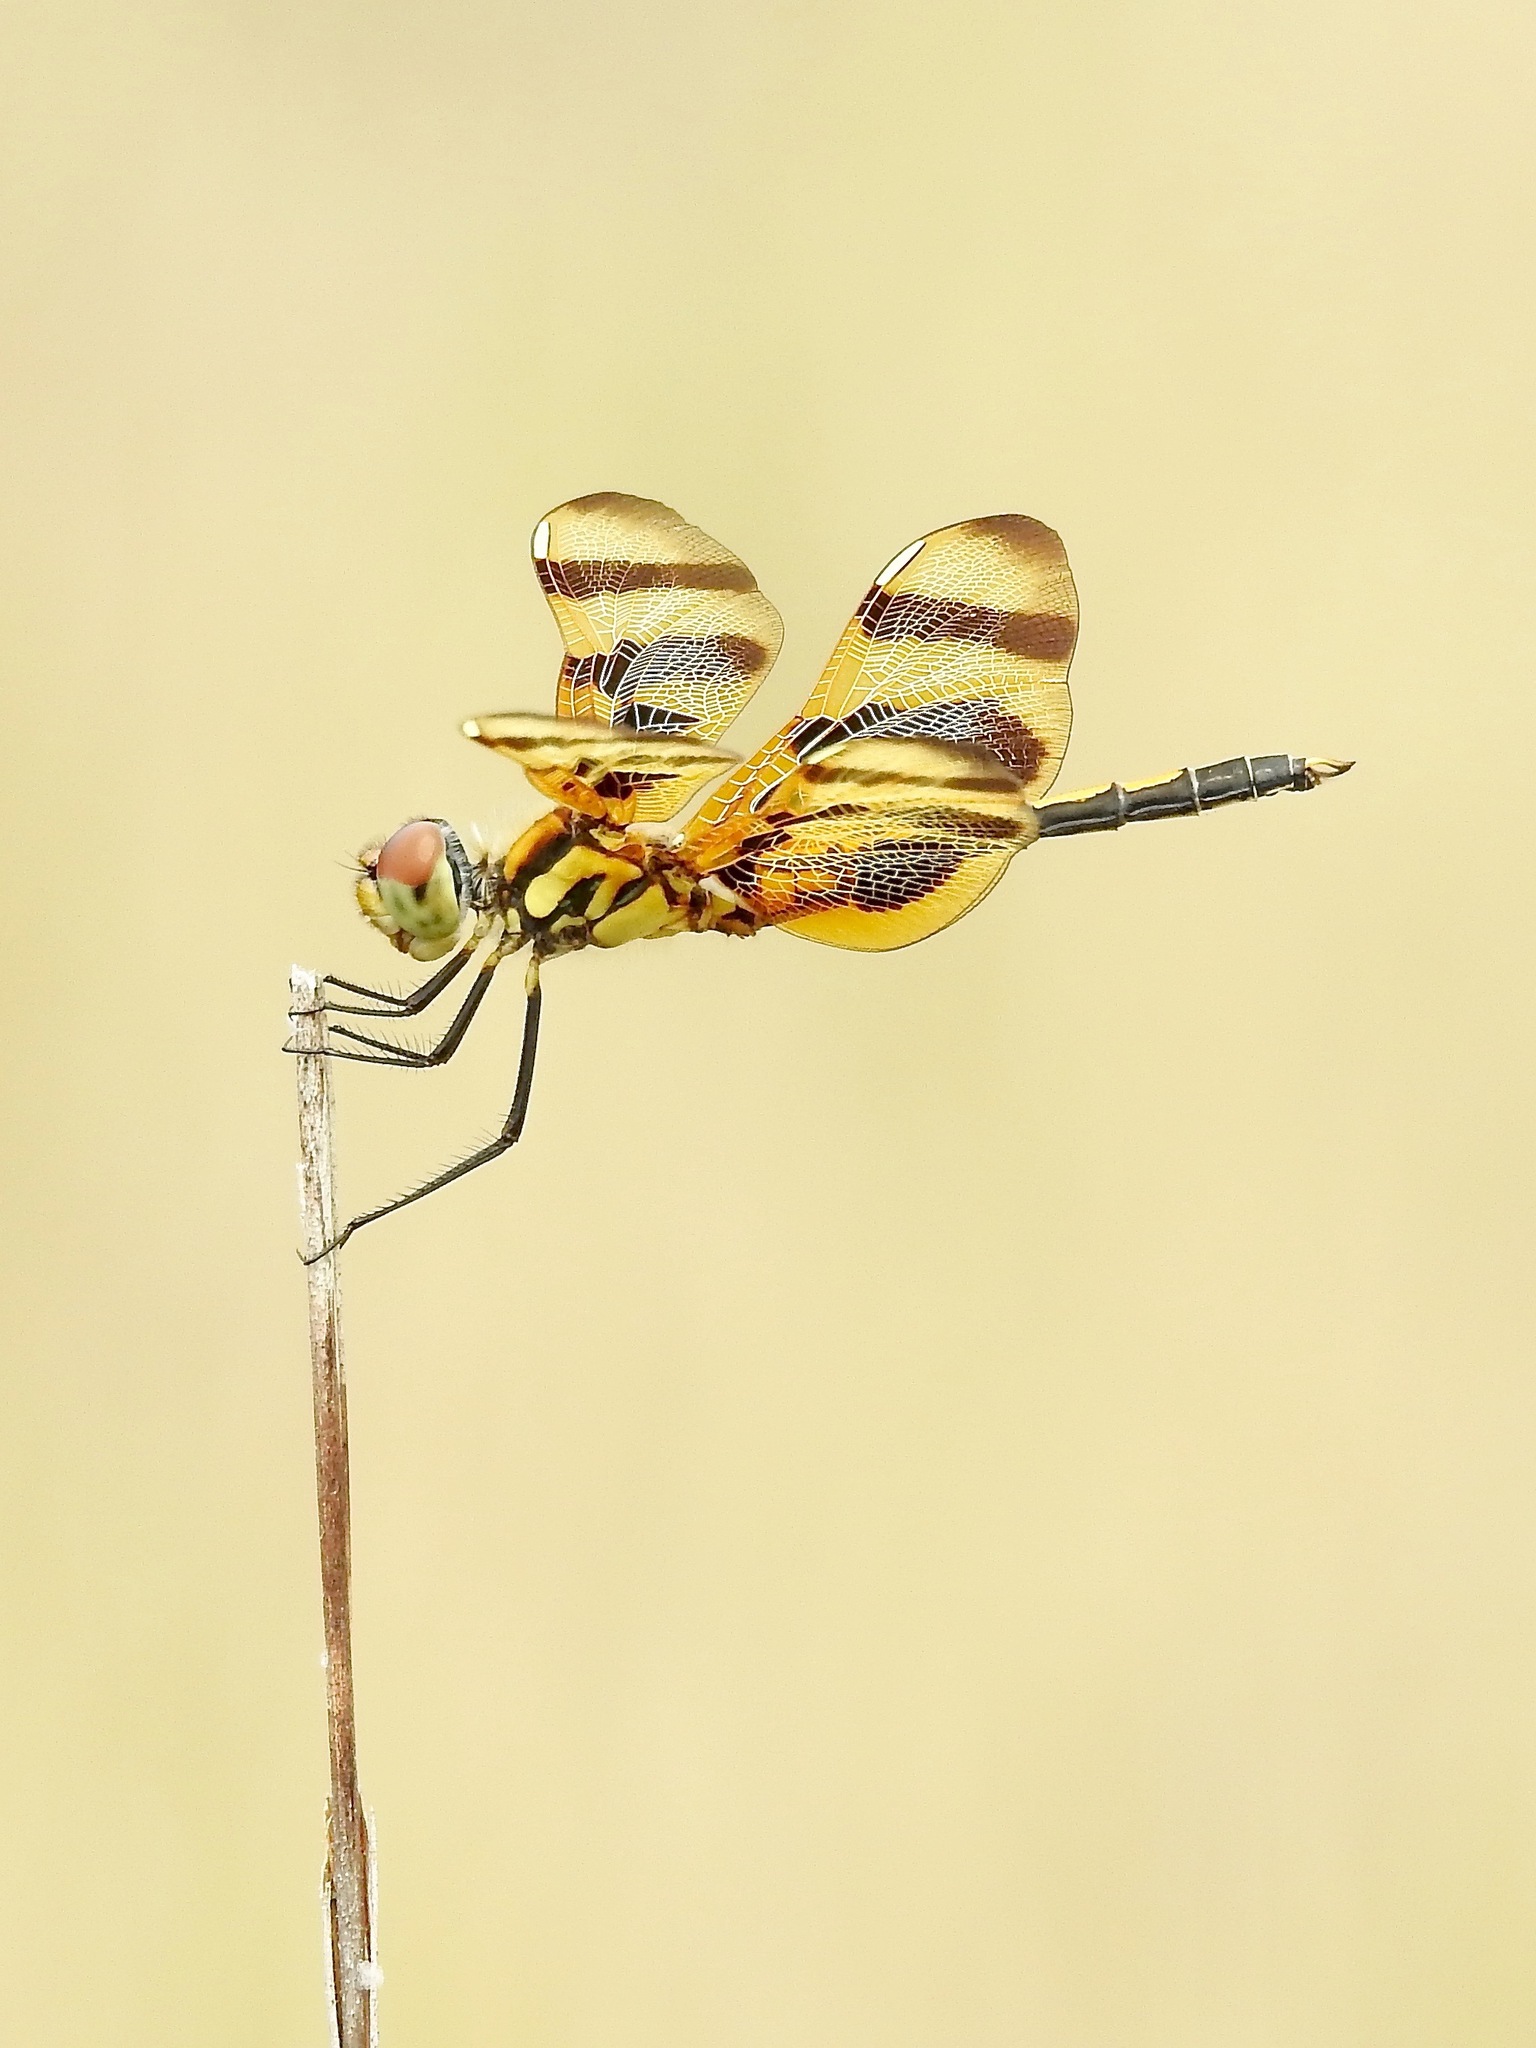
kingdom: Animalia
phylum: Arthropoda
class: Insecta
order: Odonata
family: Libellulidae
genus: Celithemis
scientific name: Celithemis eponina
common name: Halloween pennant
